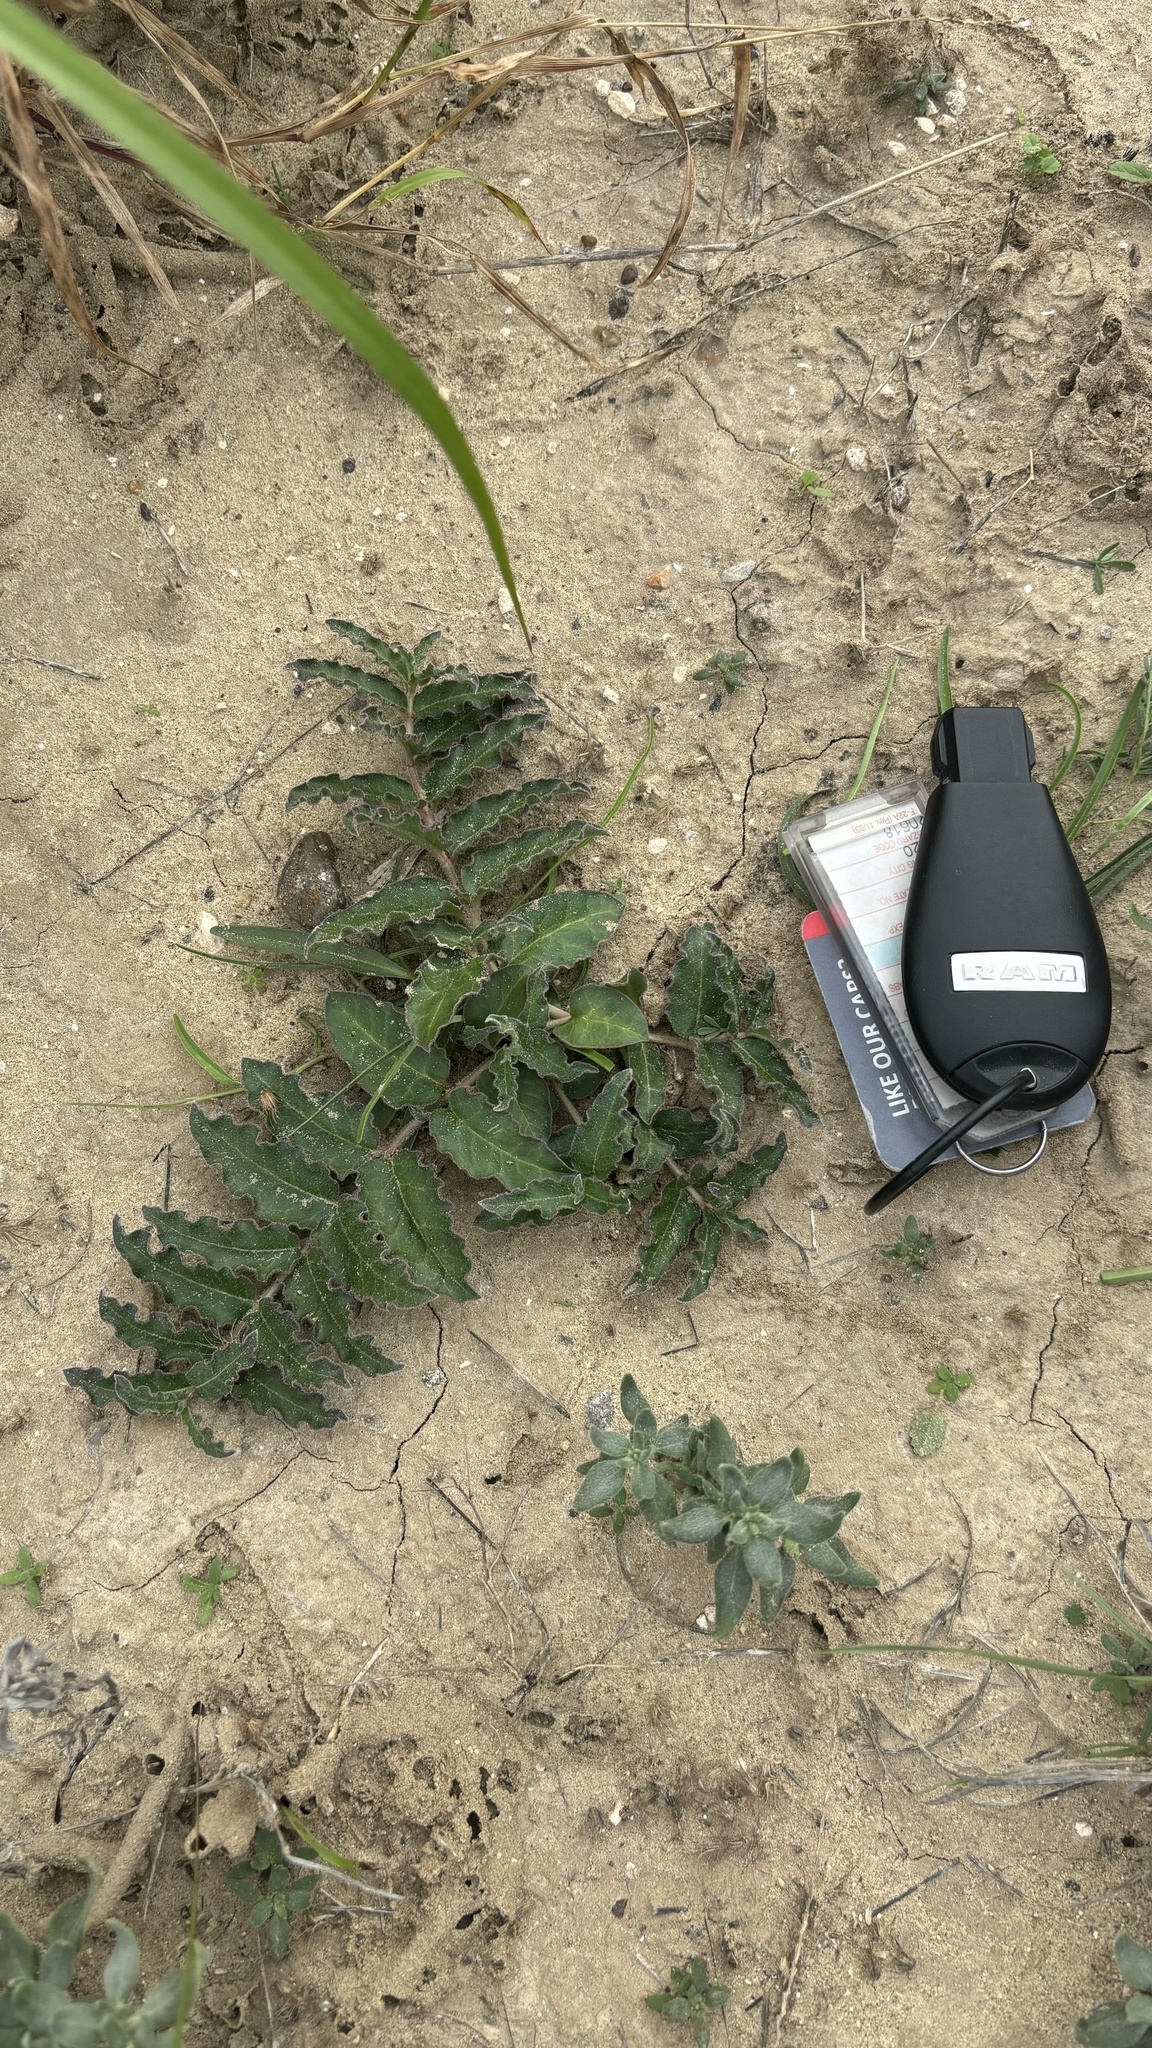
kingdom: Plantae
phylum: Tracheophyta
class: Magnoliopsida
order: Gentianales
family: Apocynaceae
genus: Asclepias
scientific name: Asclepias prostrata
